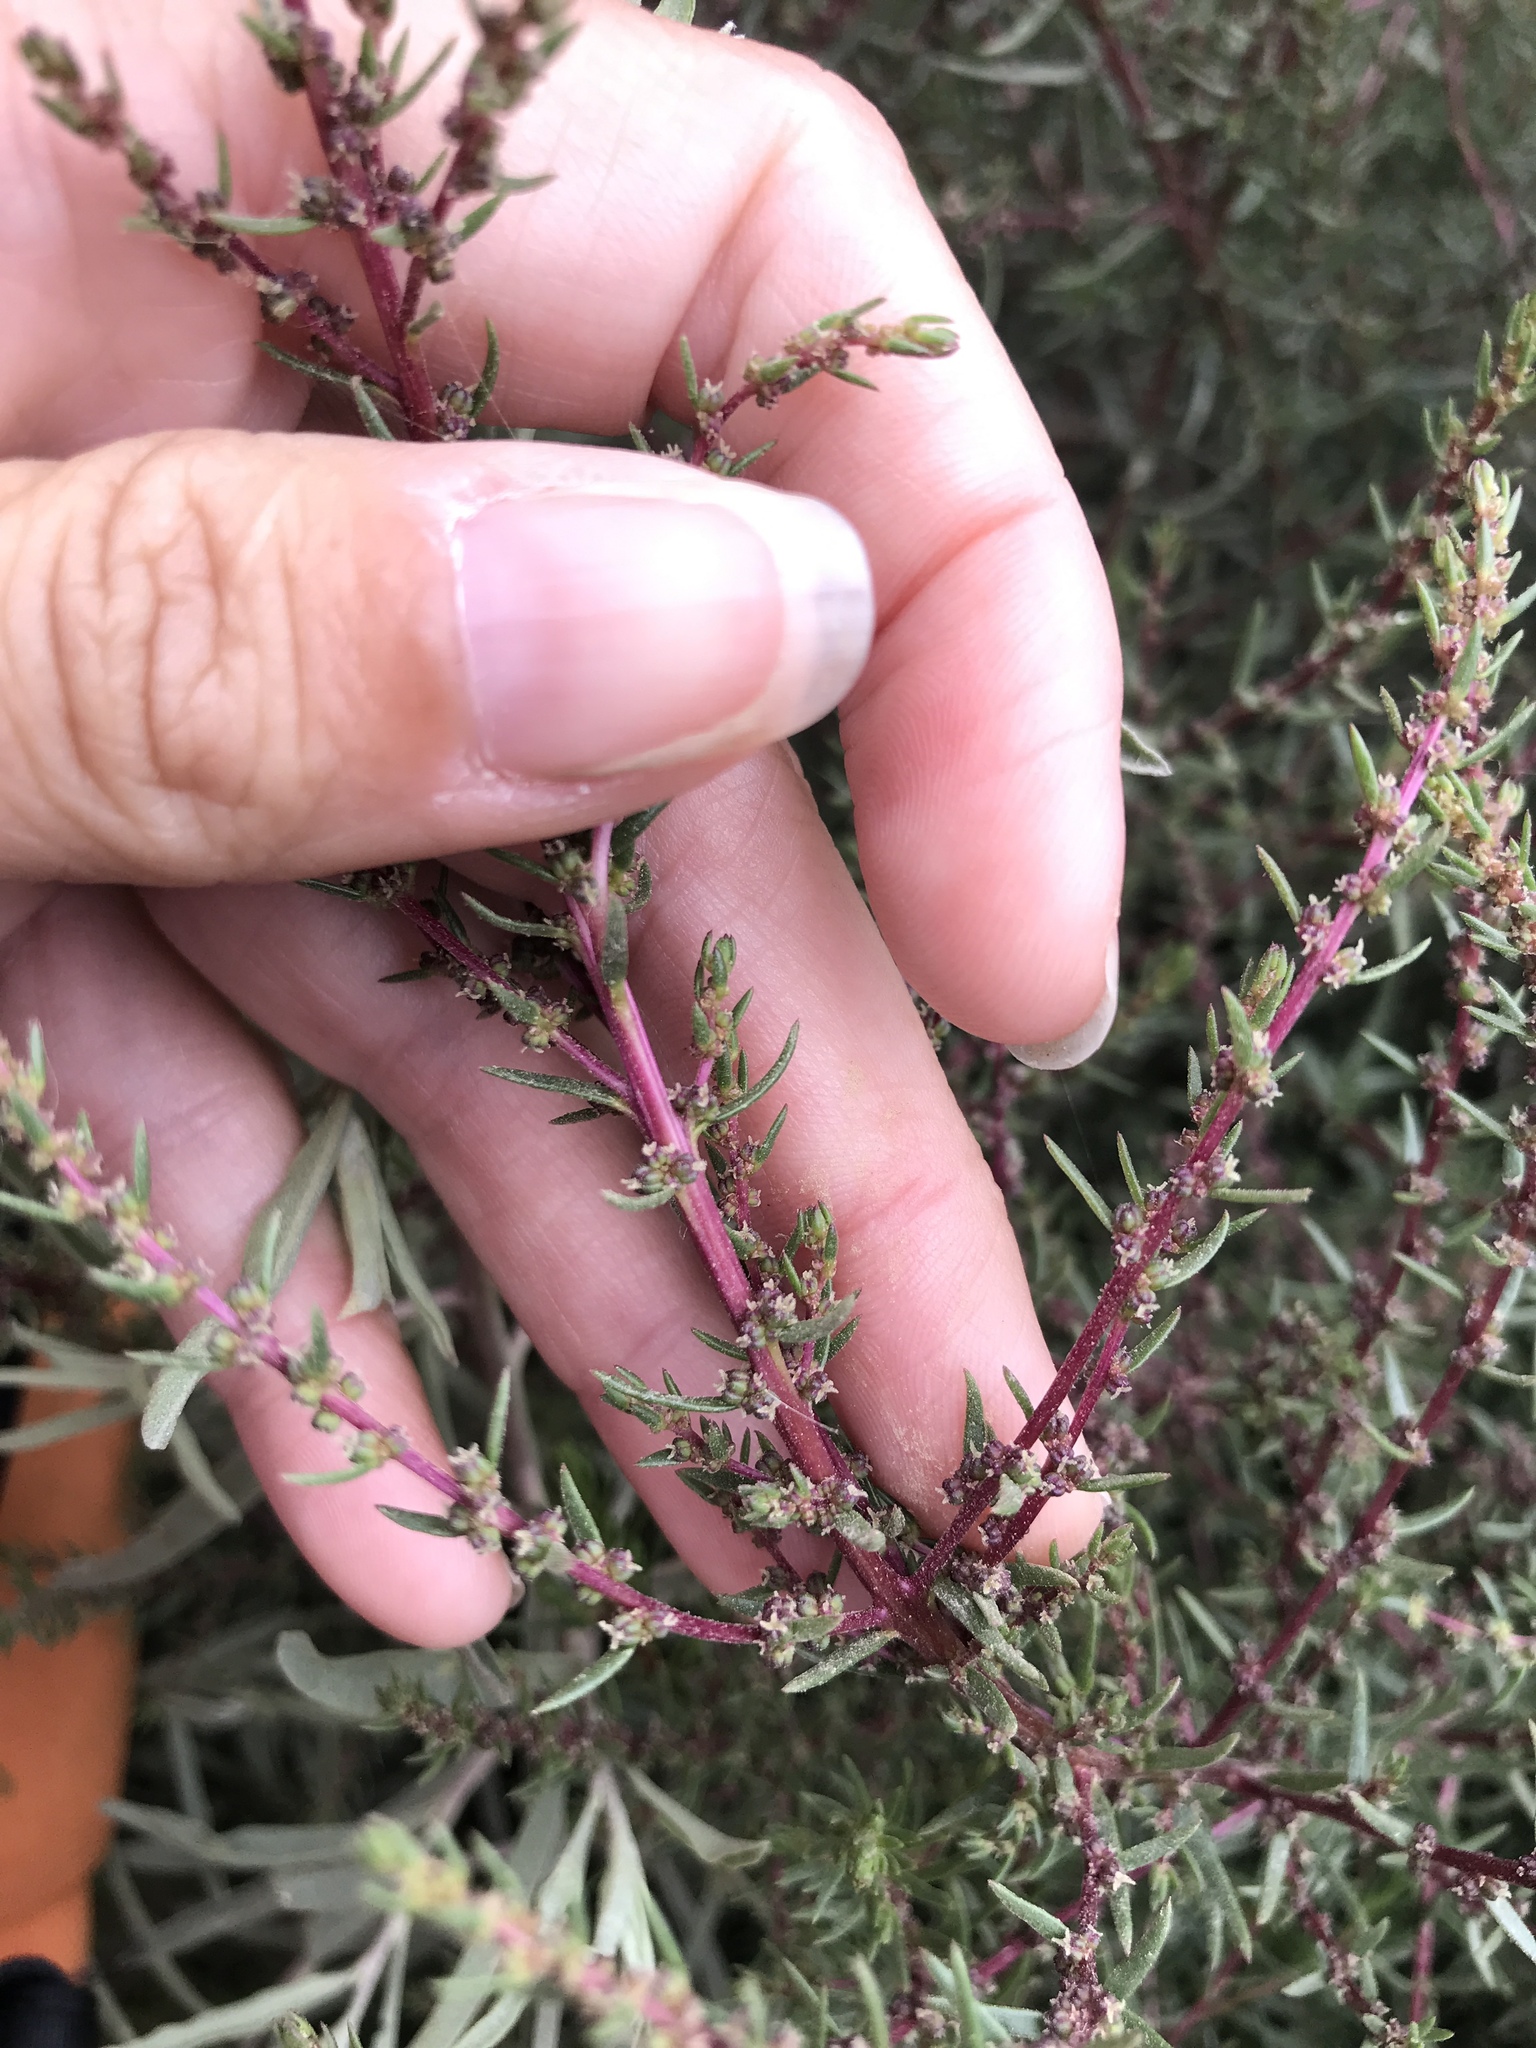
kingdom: Plantae
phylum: Tracheophyta
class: Magnoliopsida
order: Caryophyllales
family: Amaranthaceae
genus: Suaeda
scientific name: Suaeda nigra
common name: Bush seepweed
